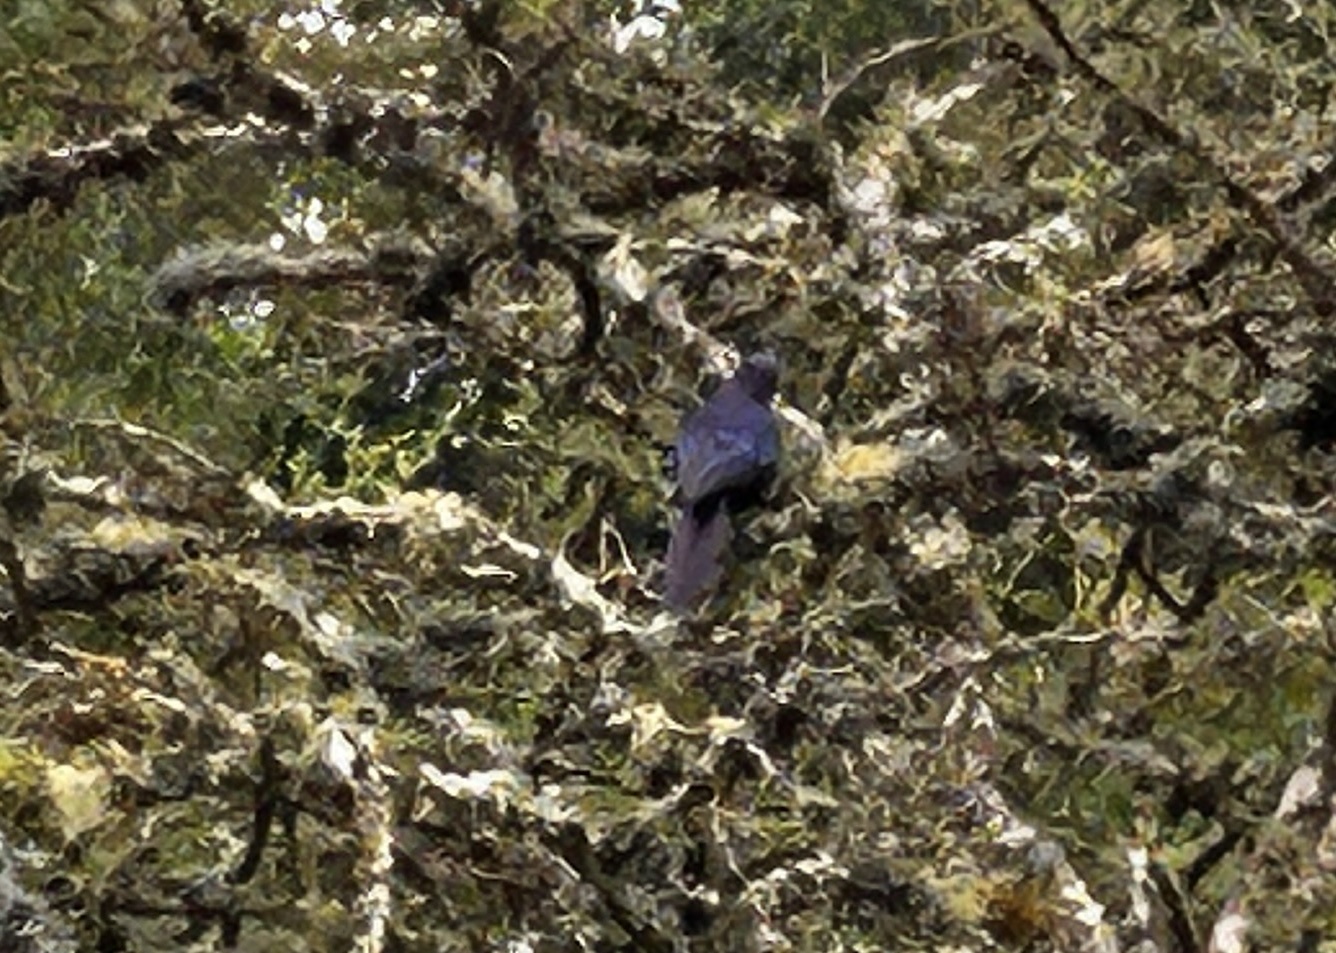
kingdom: Animalia
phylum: Chordata
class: Aves
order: Passeriformes
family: Sturnidae
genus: Lamprotornis
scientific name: Lamprotornis purpuroptera
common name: Rüppell's starling
